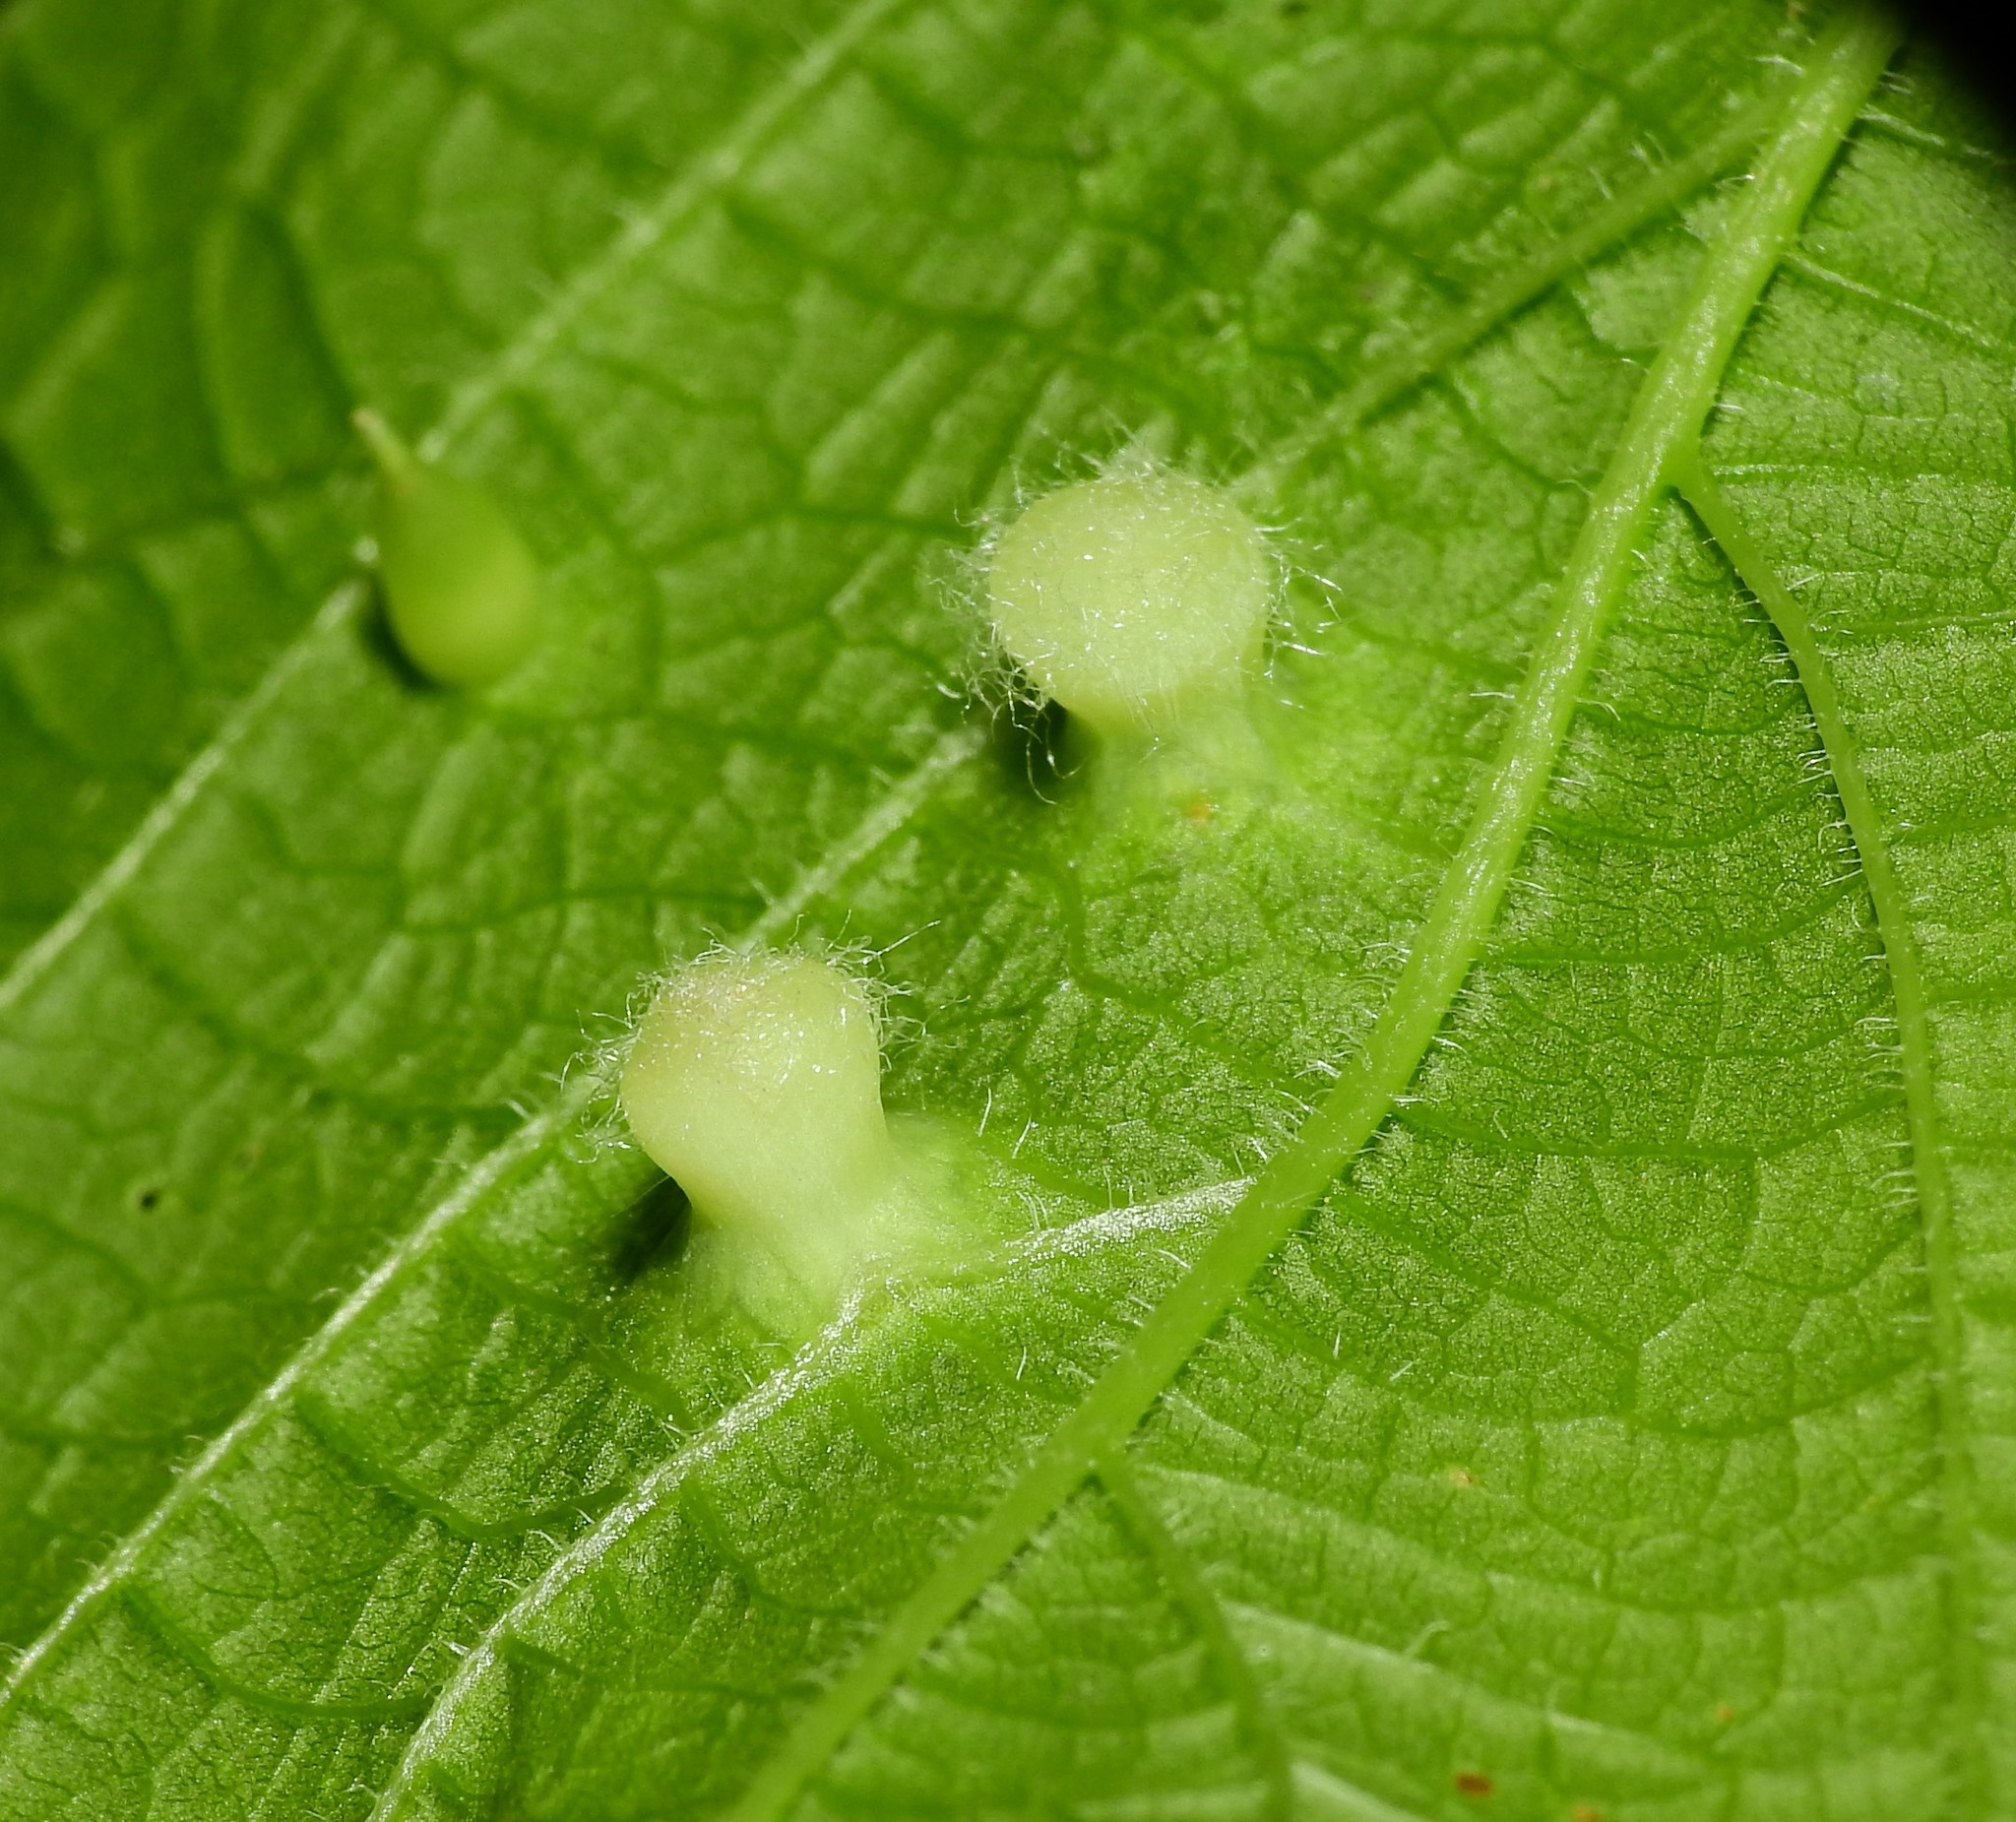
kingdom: Animalia
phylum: Arthropoda
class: Insecta
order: Hemiptera
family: Aphalaridae
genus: Pachypsylla
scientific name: Pachypsylla celtidismamma
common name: Hackberry nipplegall psyllid
